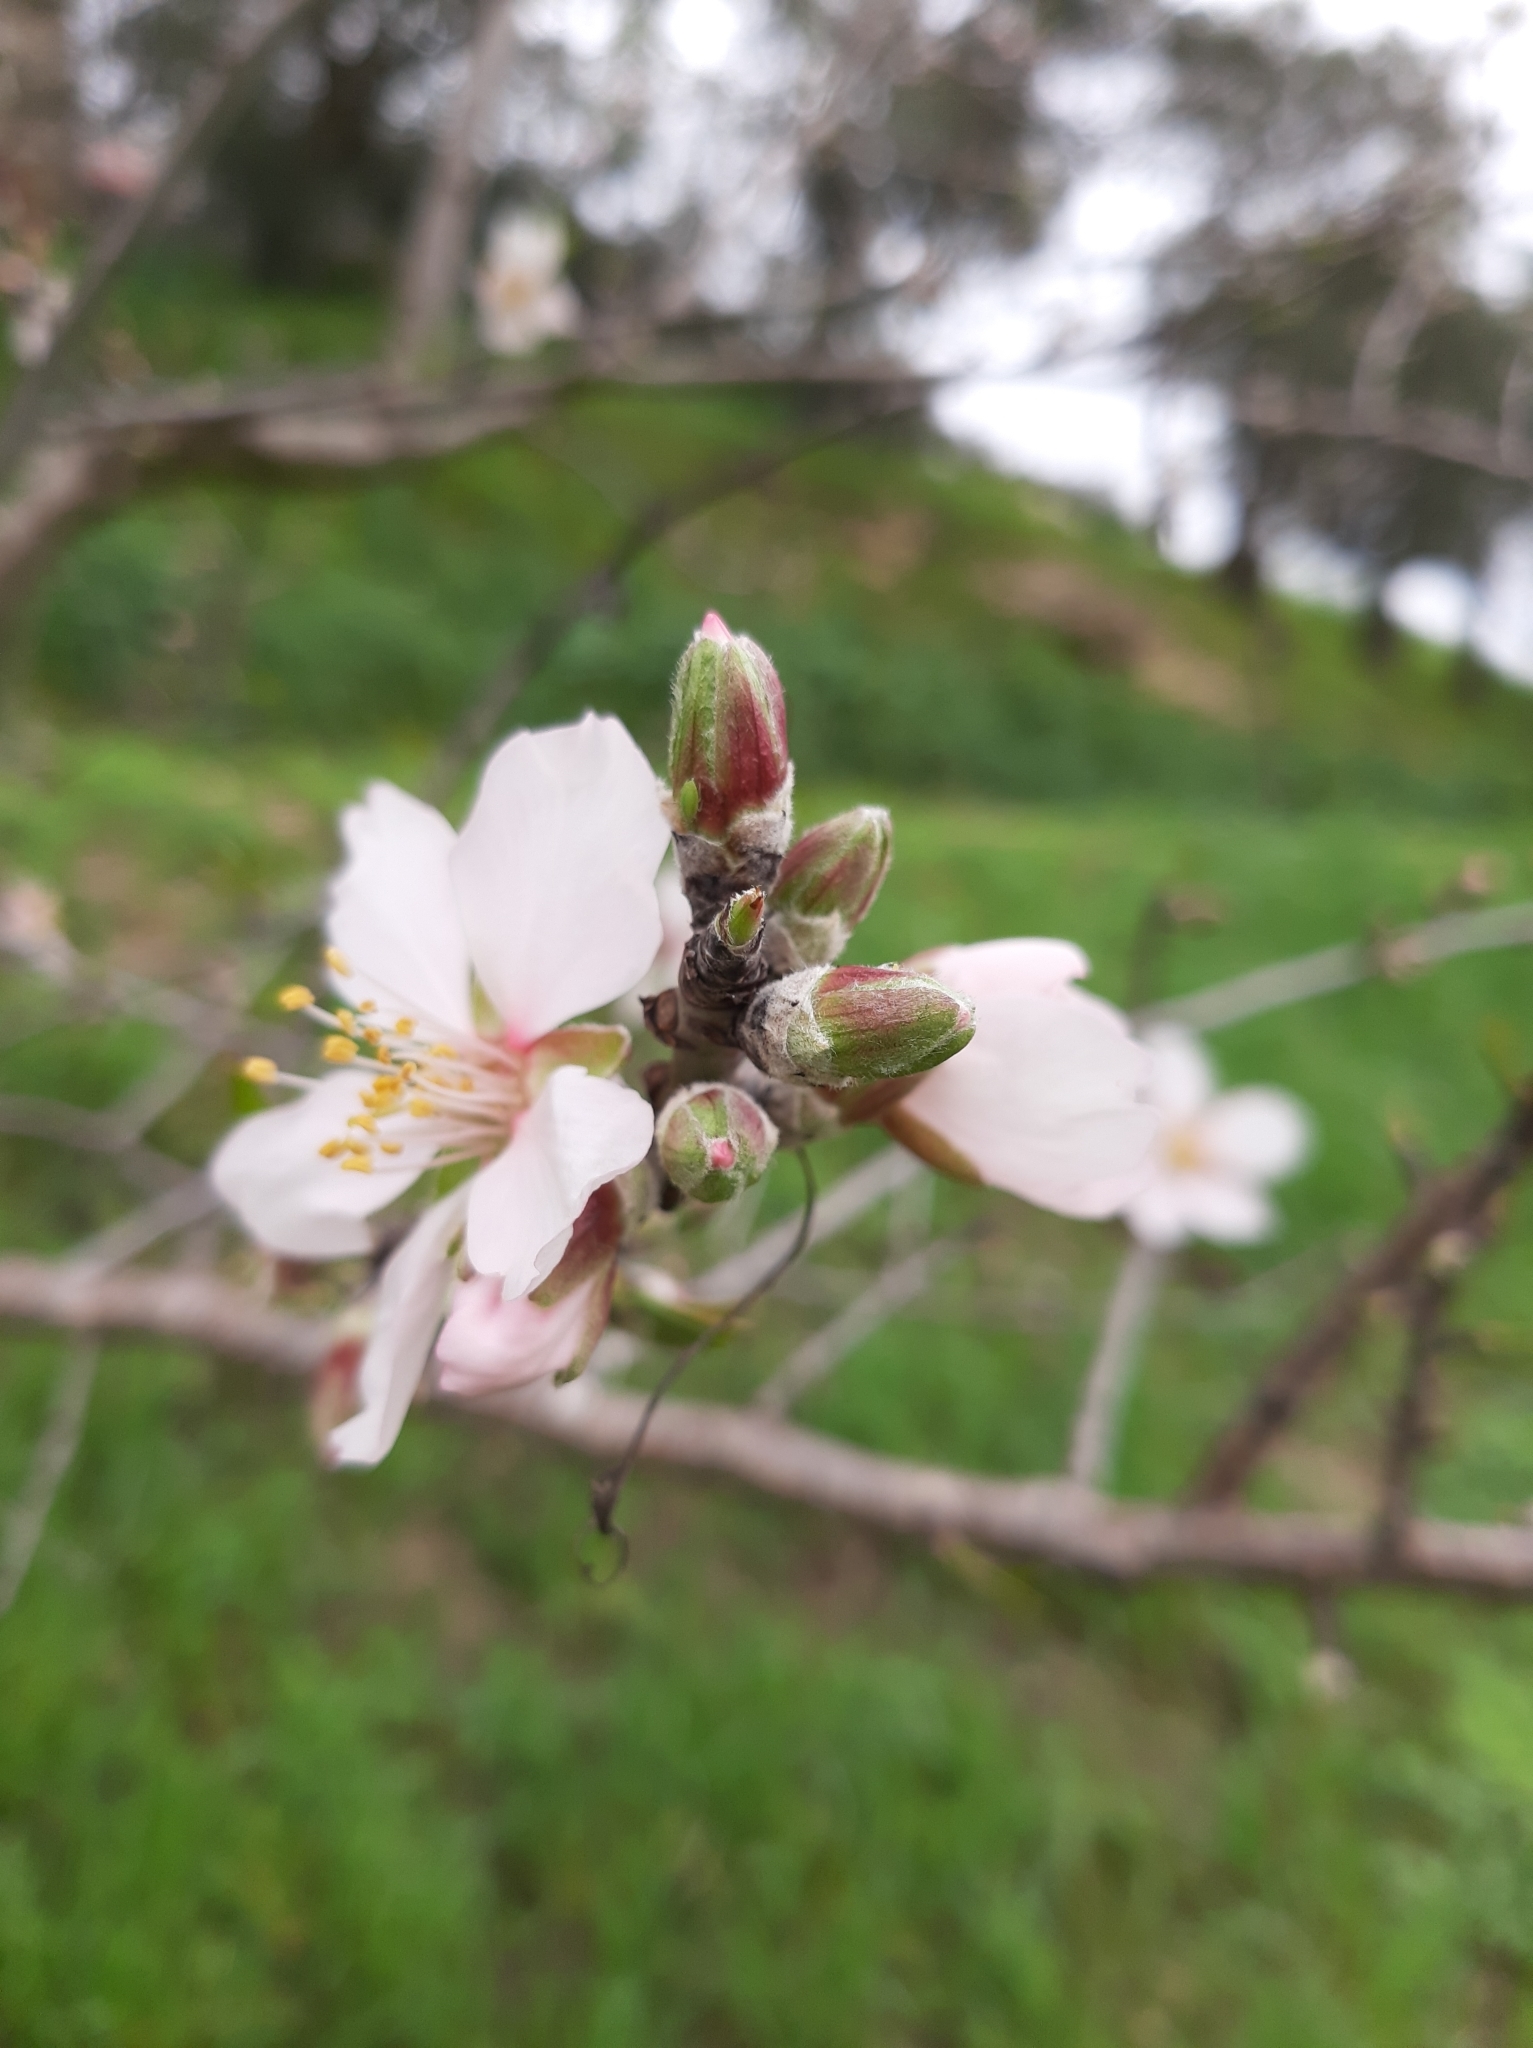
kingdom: Plantae
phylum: Tracheophyta
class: Magnoliopsida
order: Rosales
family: Rosaceae
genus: Prunus
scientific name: Prunus amygdalus
